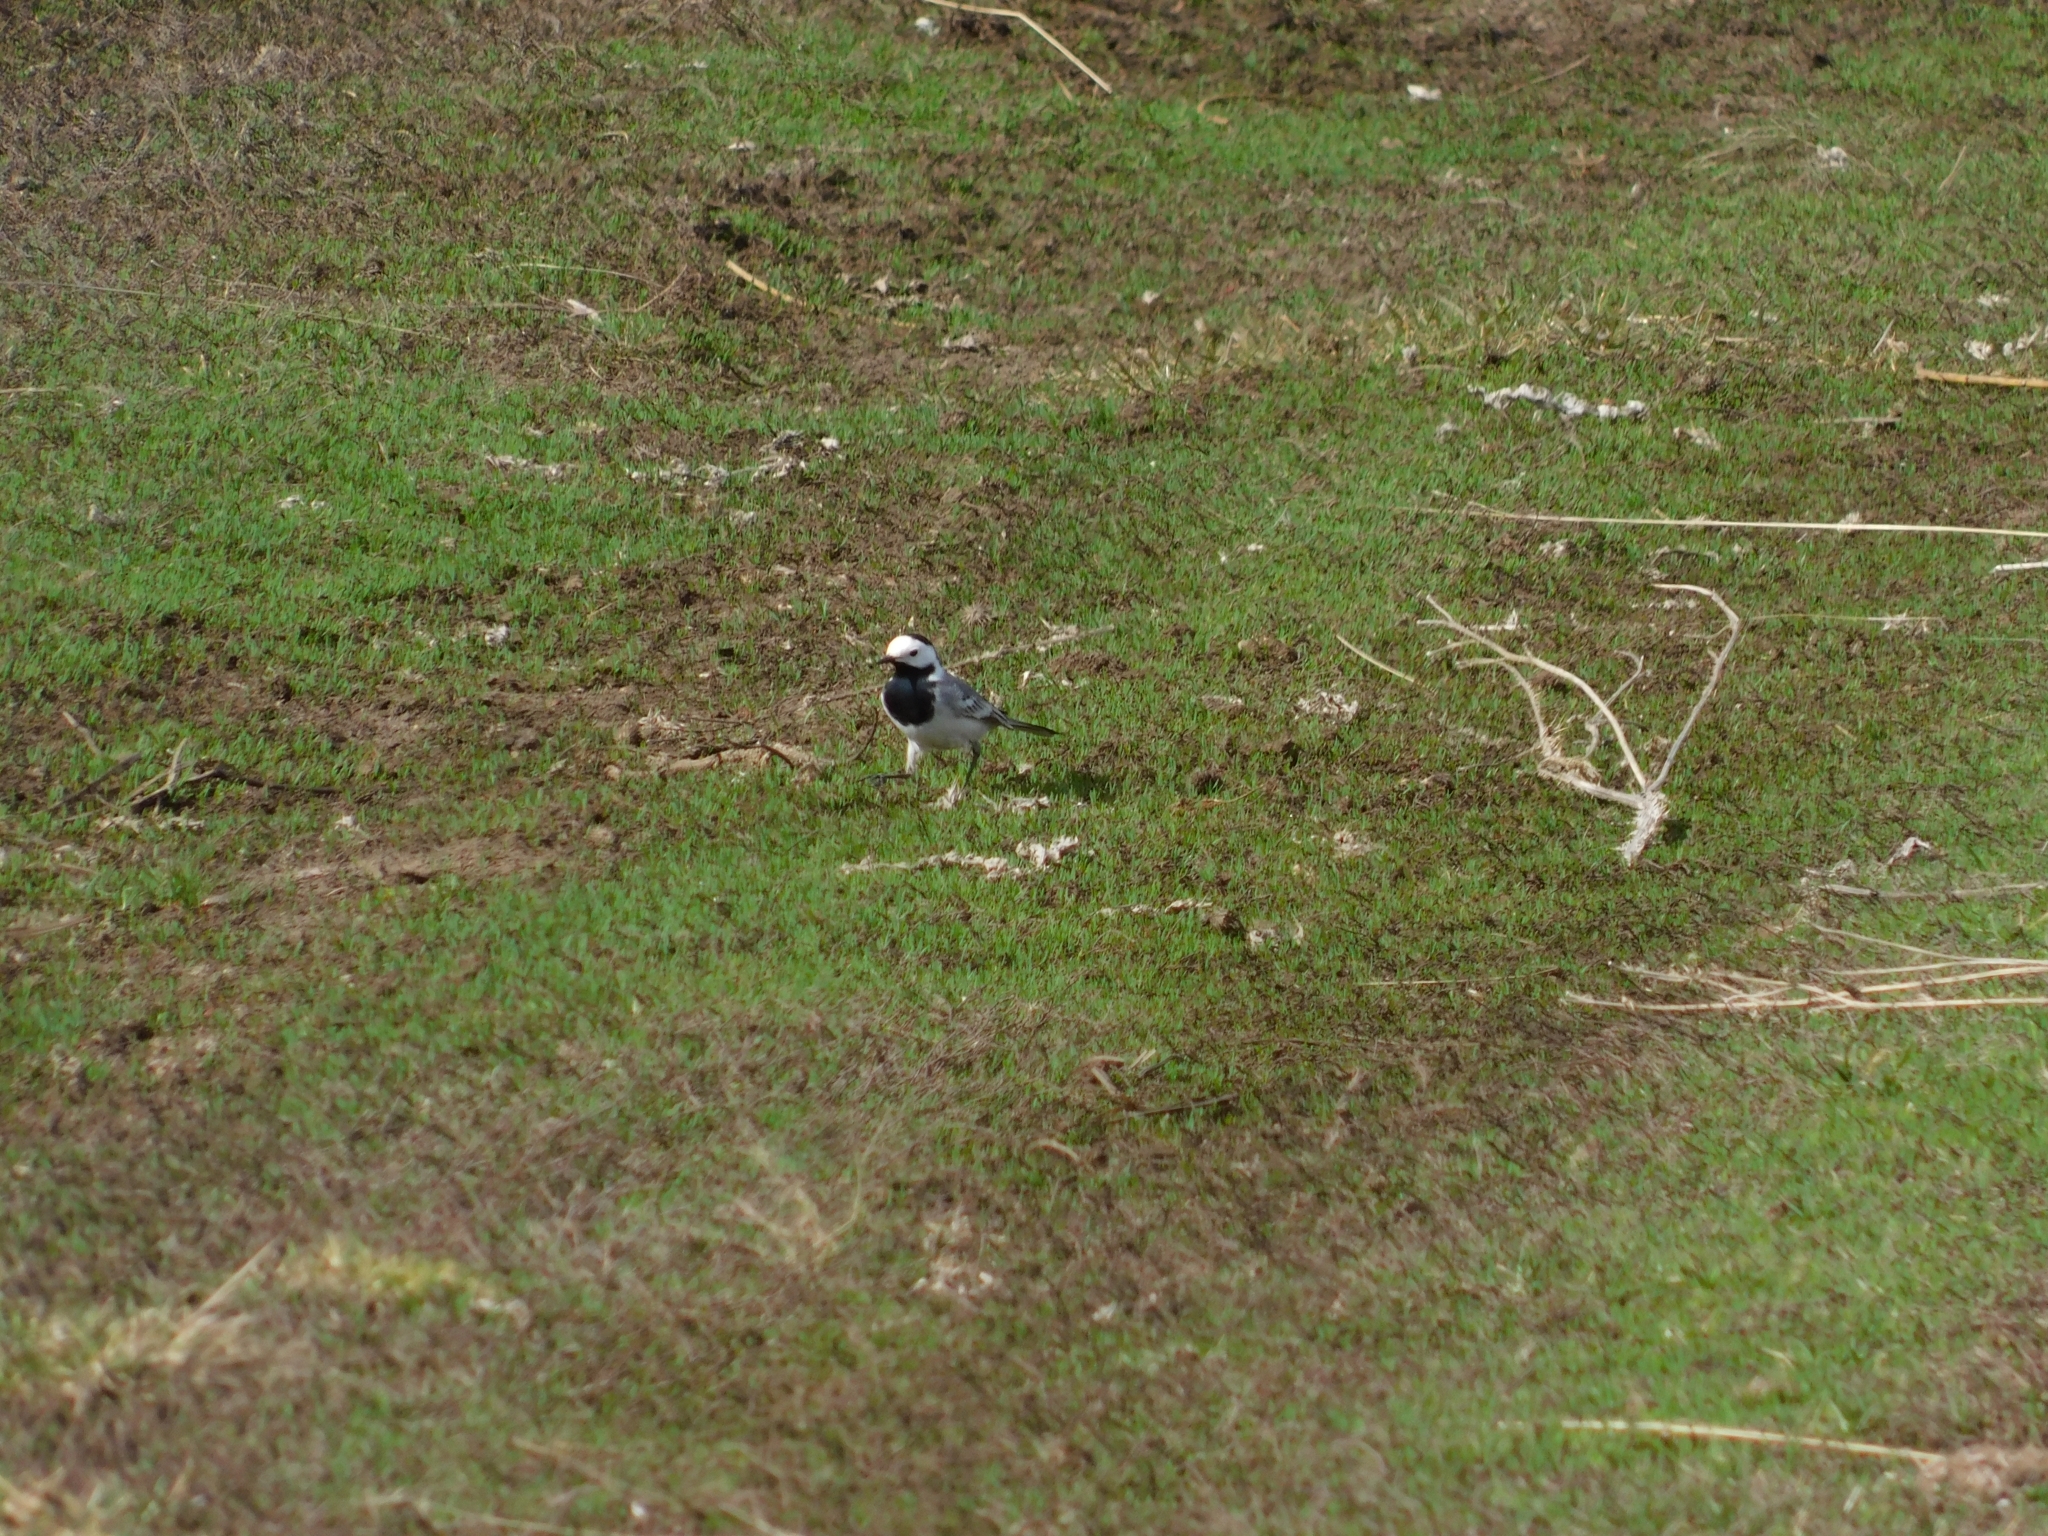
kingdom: Animalia
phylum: Chordata
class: Aves
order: Passeriformes
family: Motacillidae
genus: Motacilla
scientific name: Motacilla alba
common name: White wagtail
